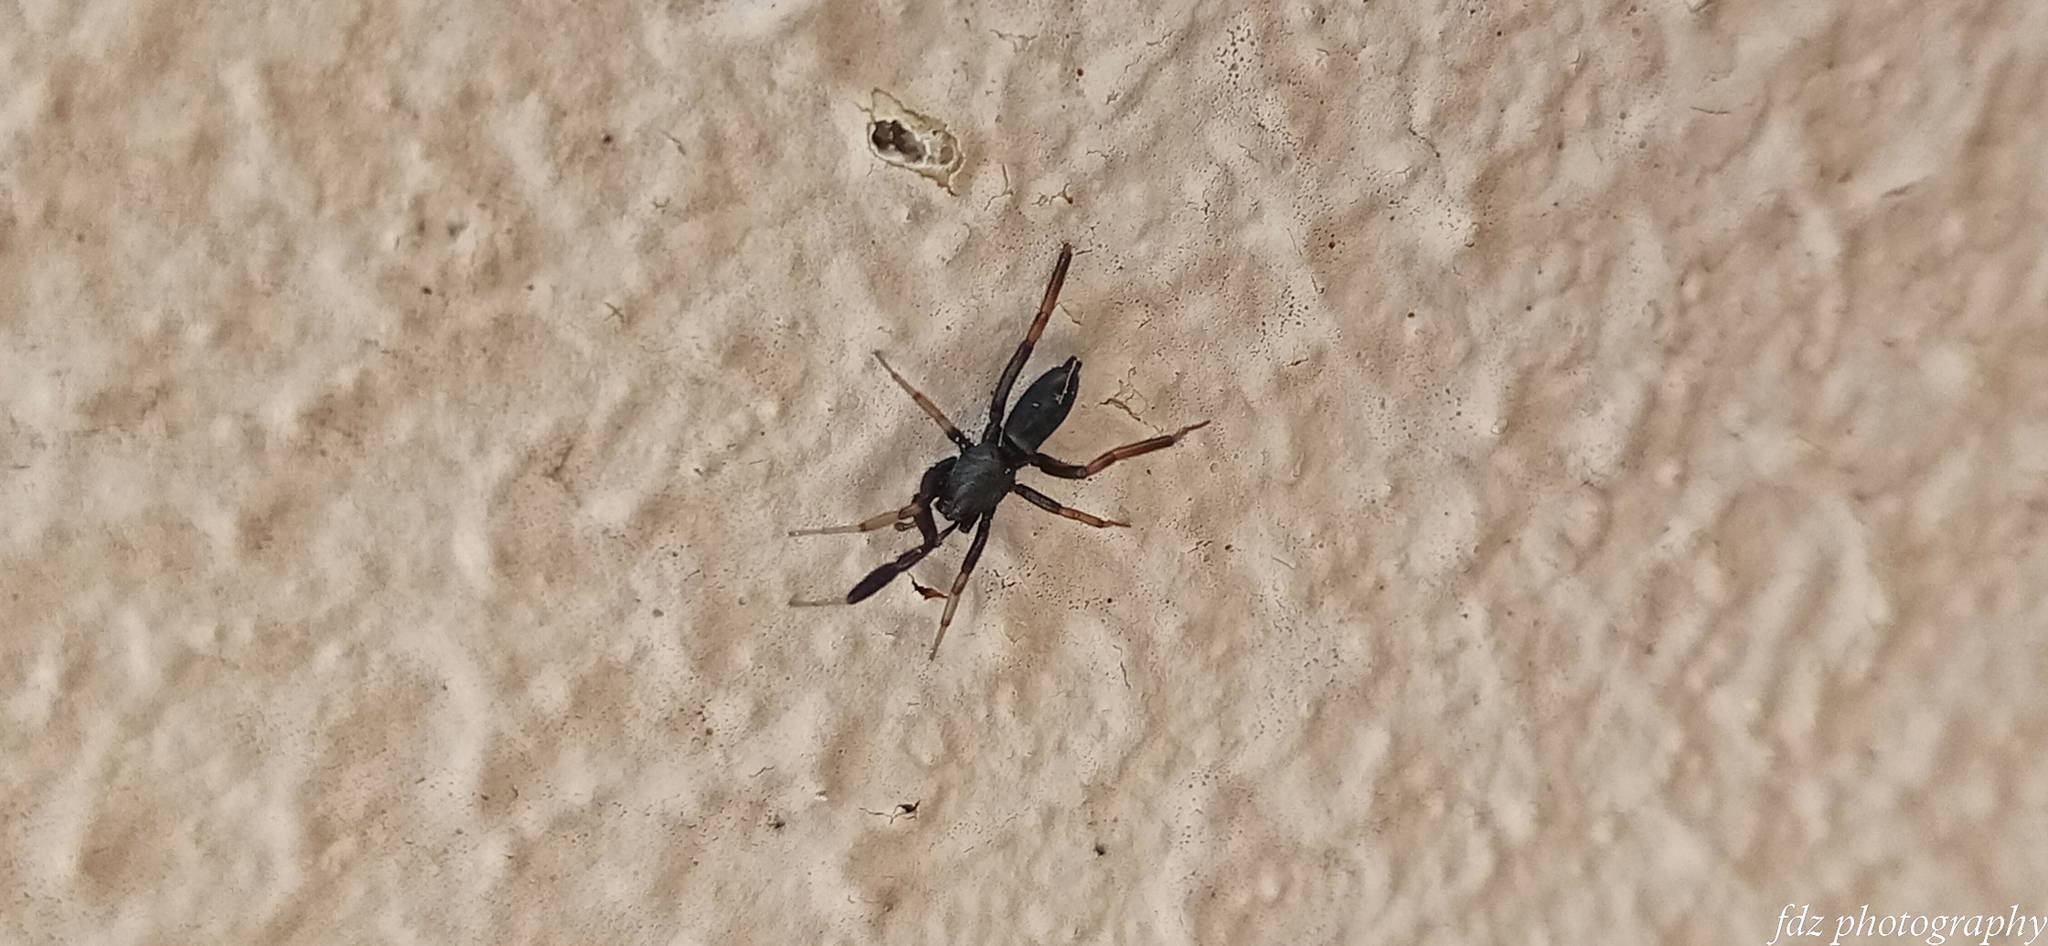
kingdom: Animalia
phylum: Arthropoda
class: Arachnida
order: Araneae
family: Gnaphosidae
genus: Setaphis
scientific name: Setaphis carmeli
